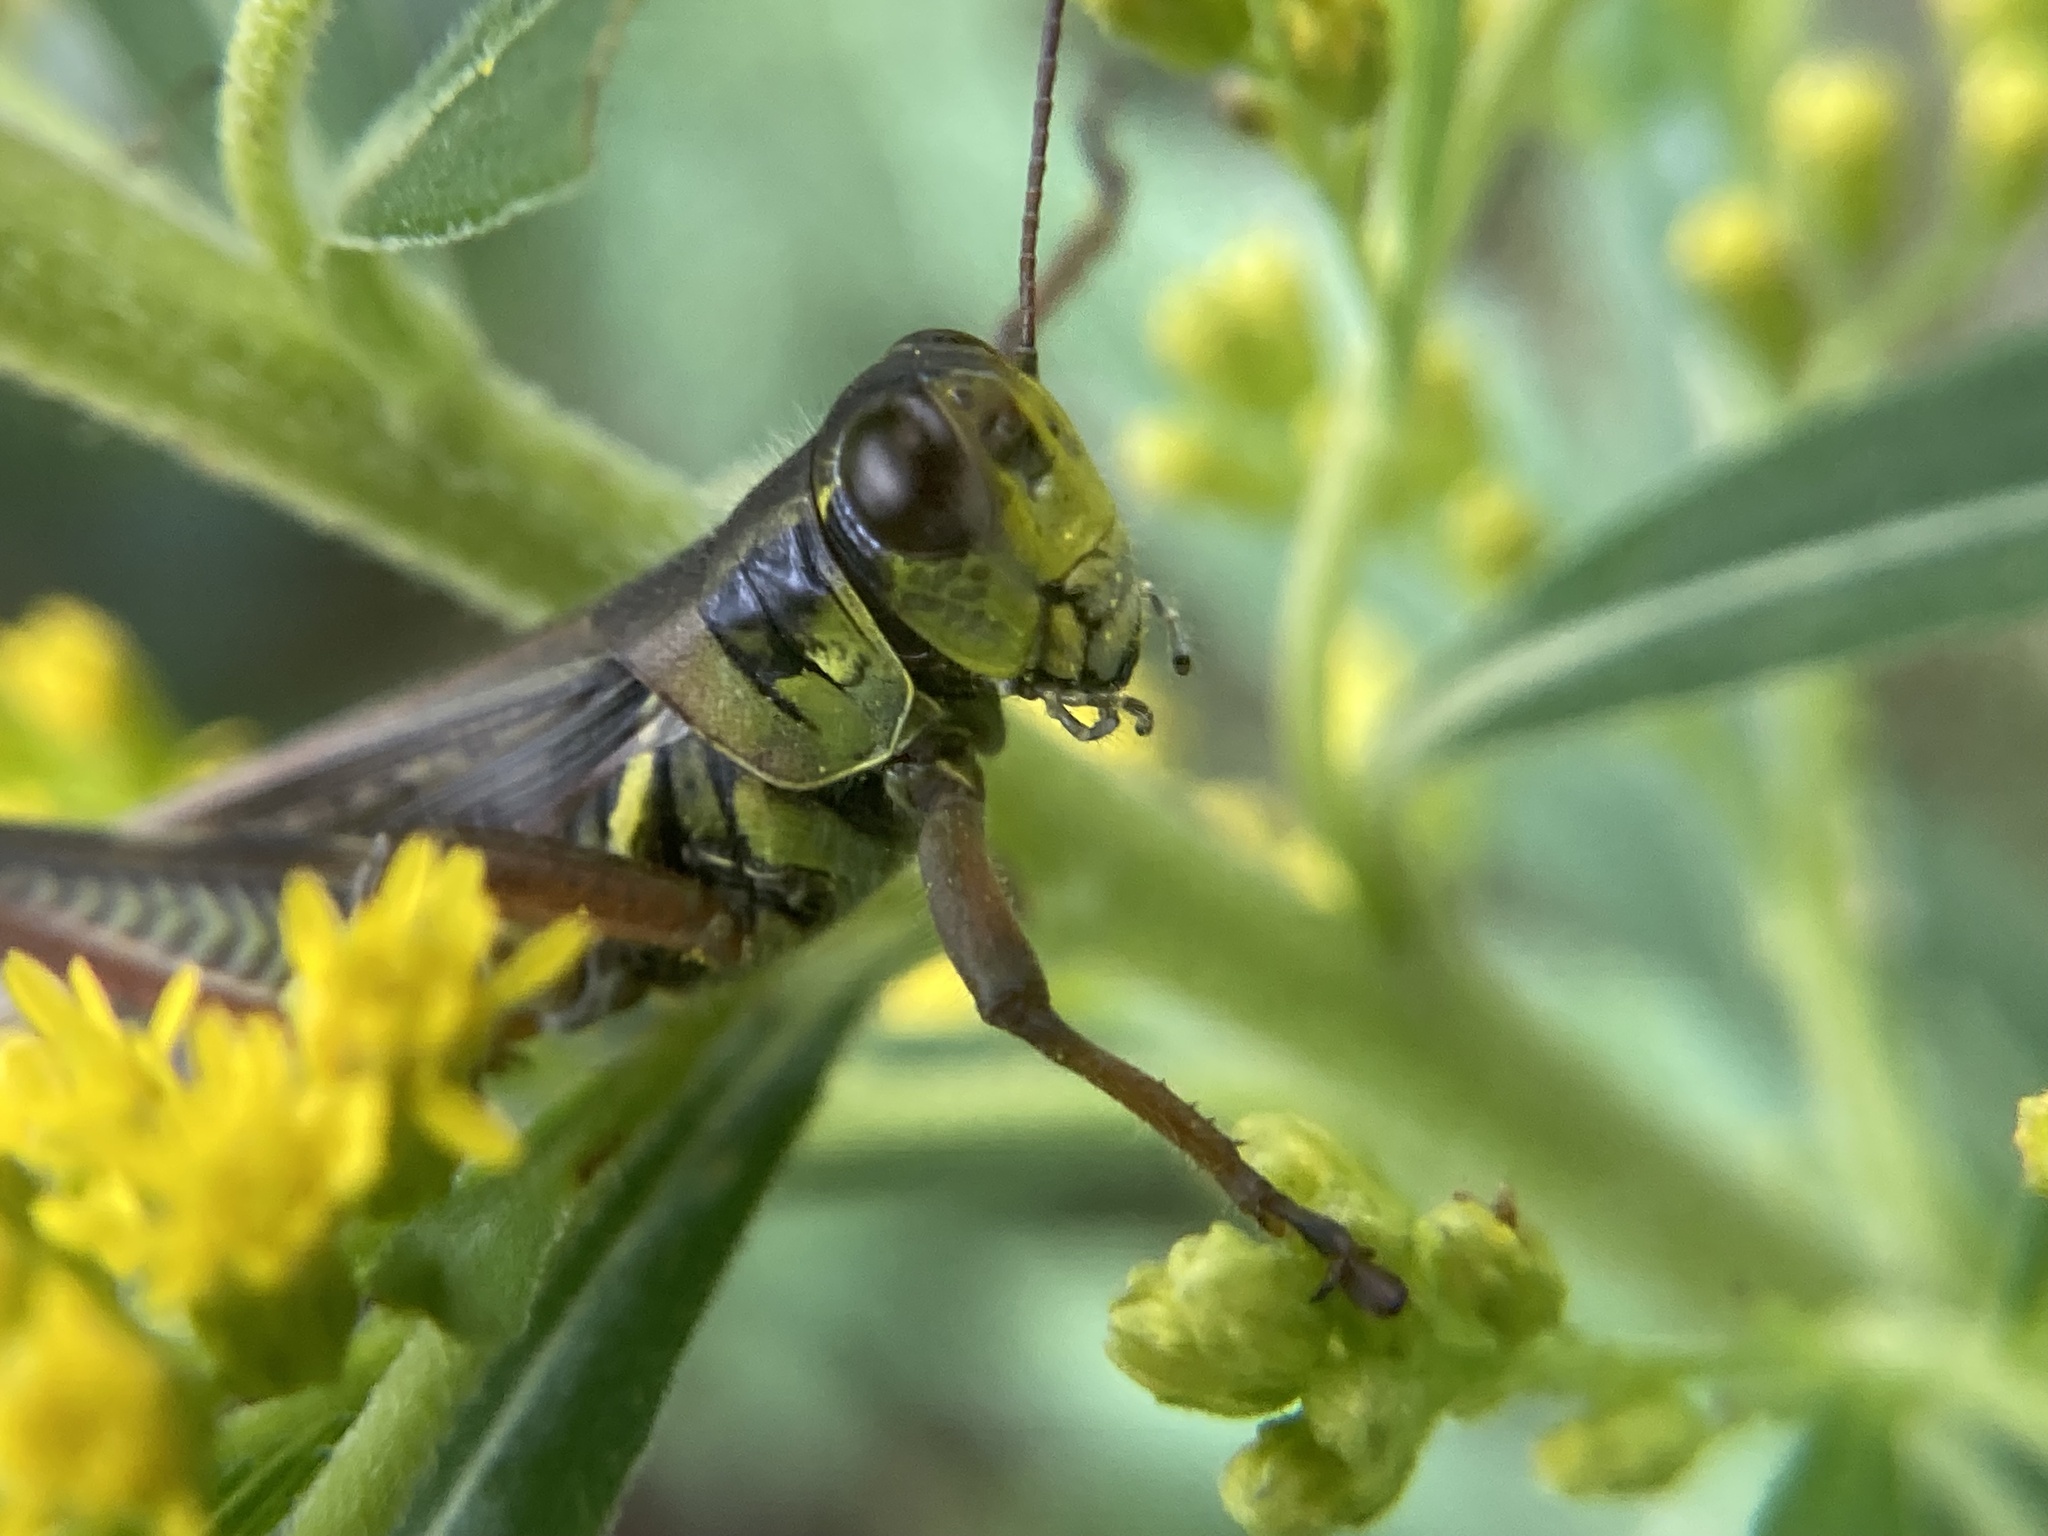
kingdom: Animalia
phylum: Arthropoda
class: Insecta
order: Orthoptera
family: Acrididae
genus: Melanoplus
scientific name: Melanoplus femurrubrum
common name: Red-legged grasshopper
